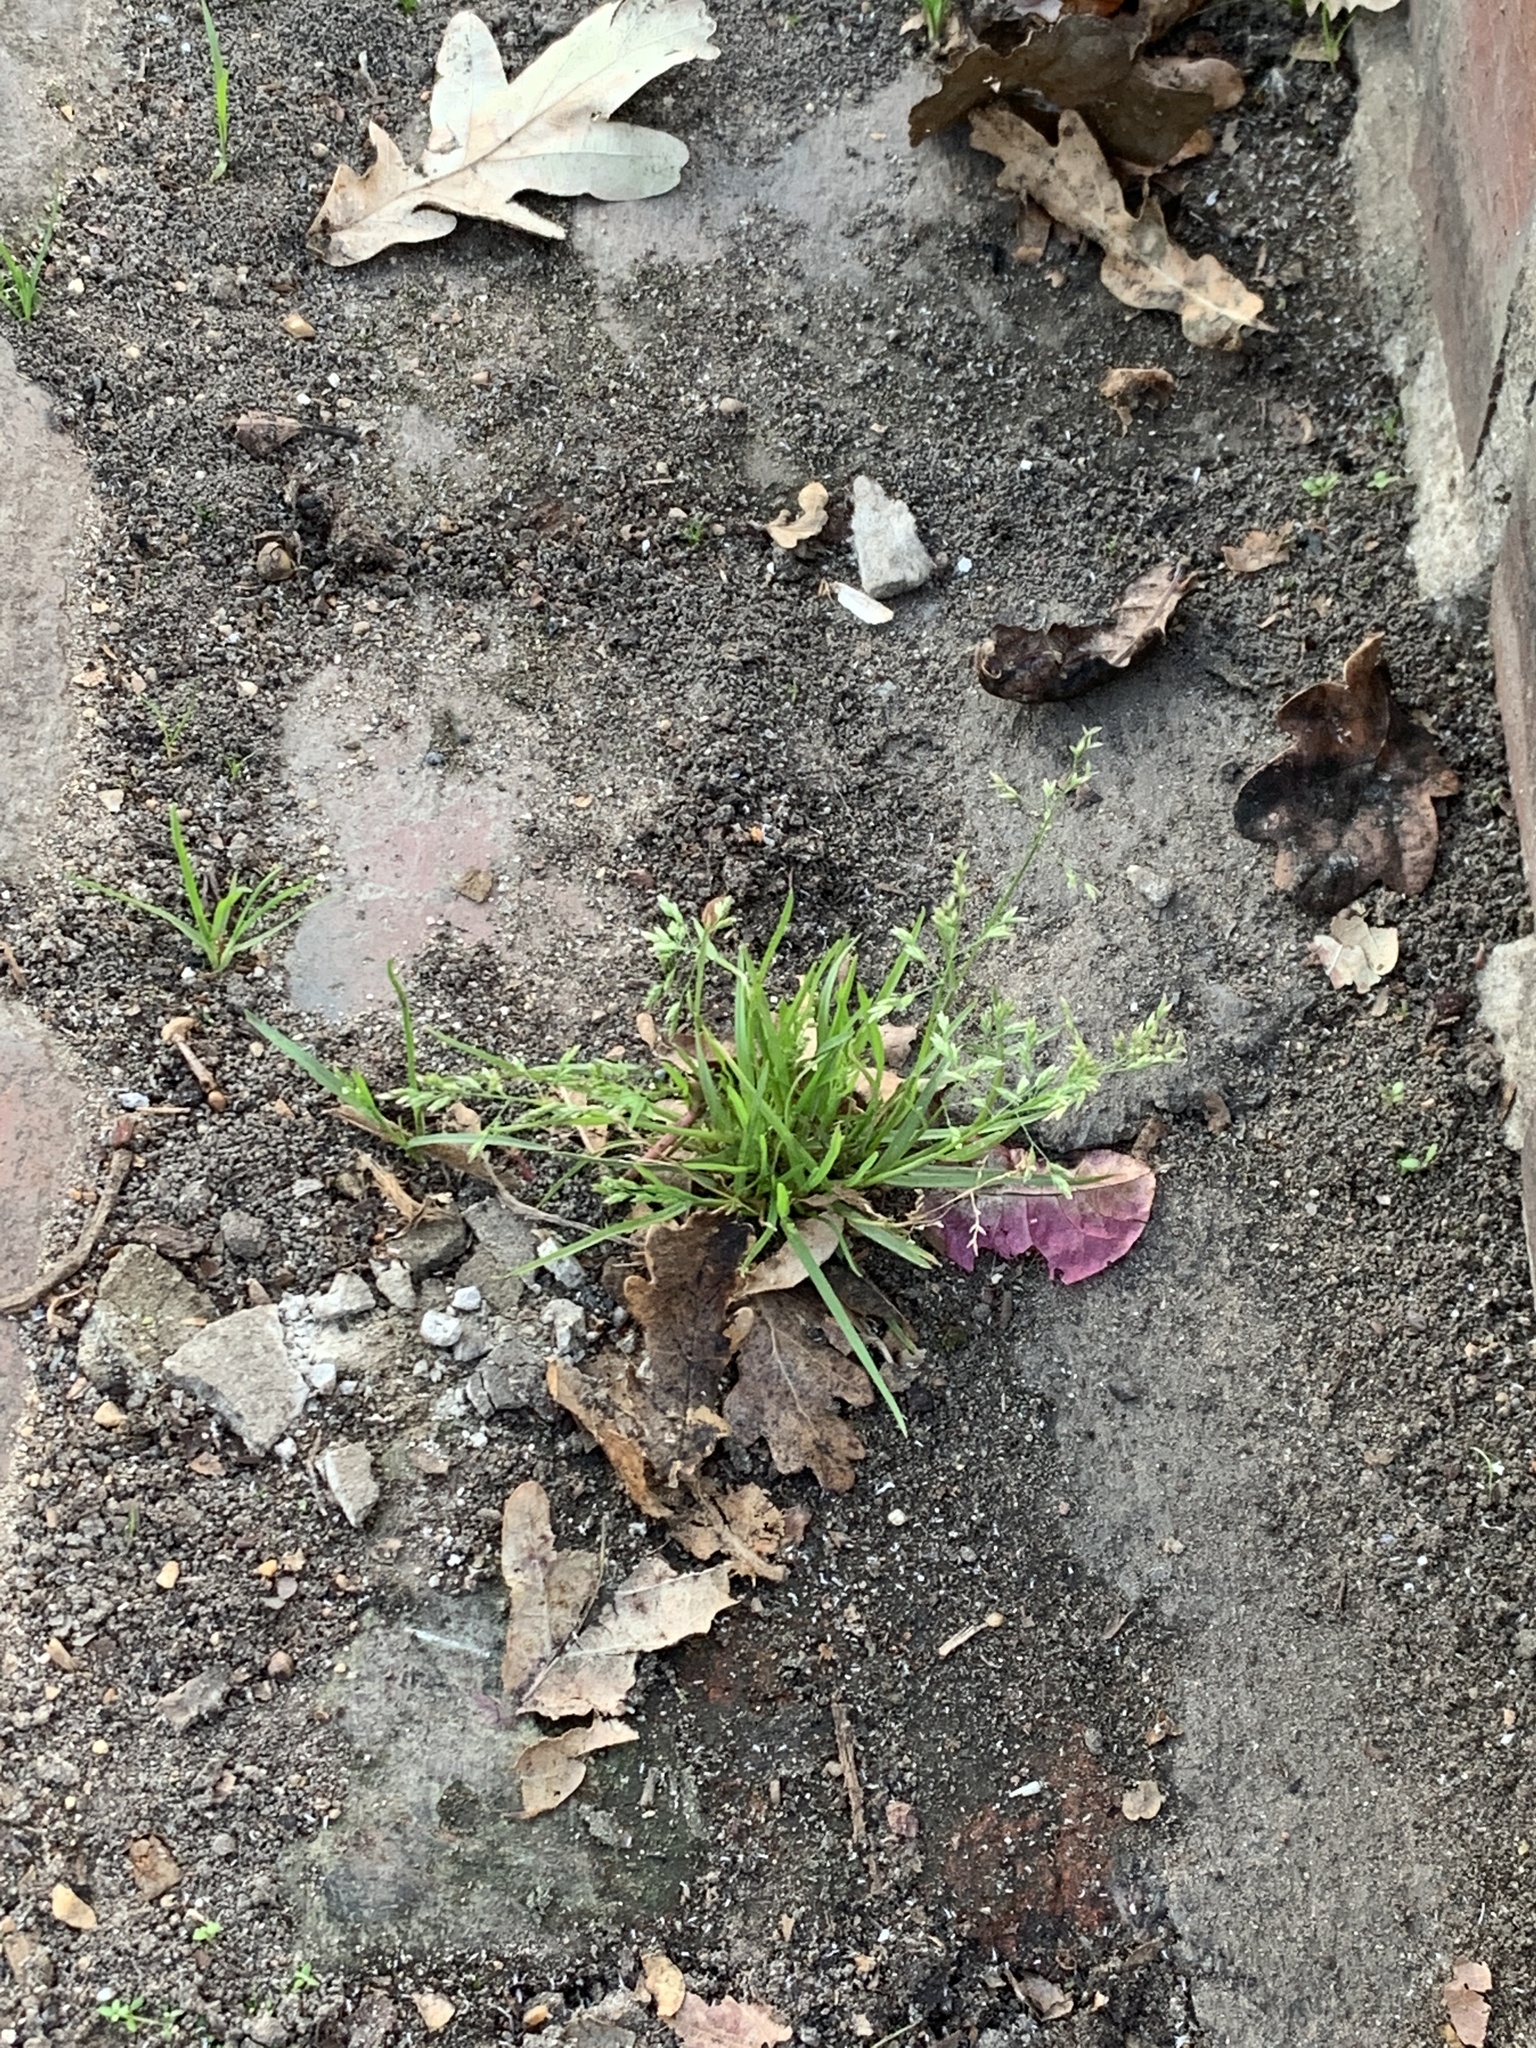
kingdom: Plantae
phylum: Tracheophyta
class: Liliopsida
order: Poales
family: Poaceae
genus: Poa
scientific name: Poa annua
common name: Annual bluegrass
